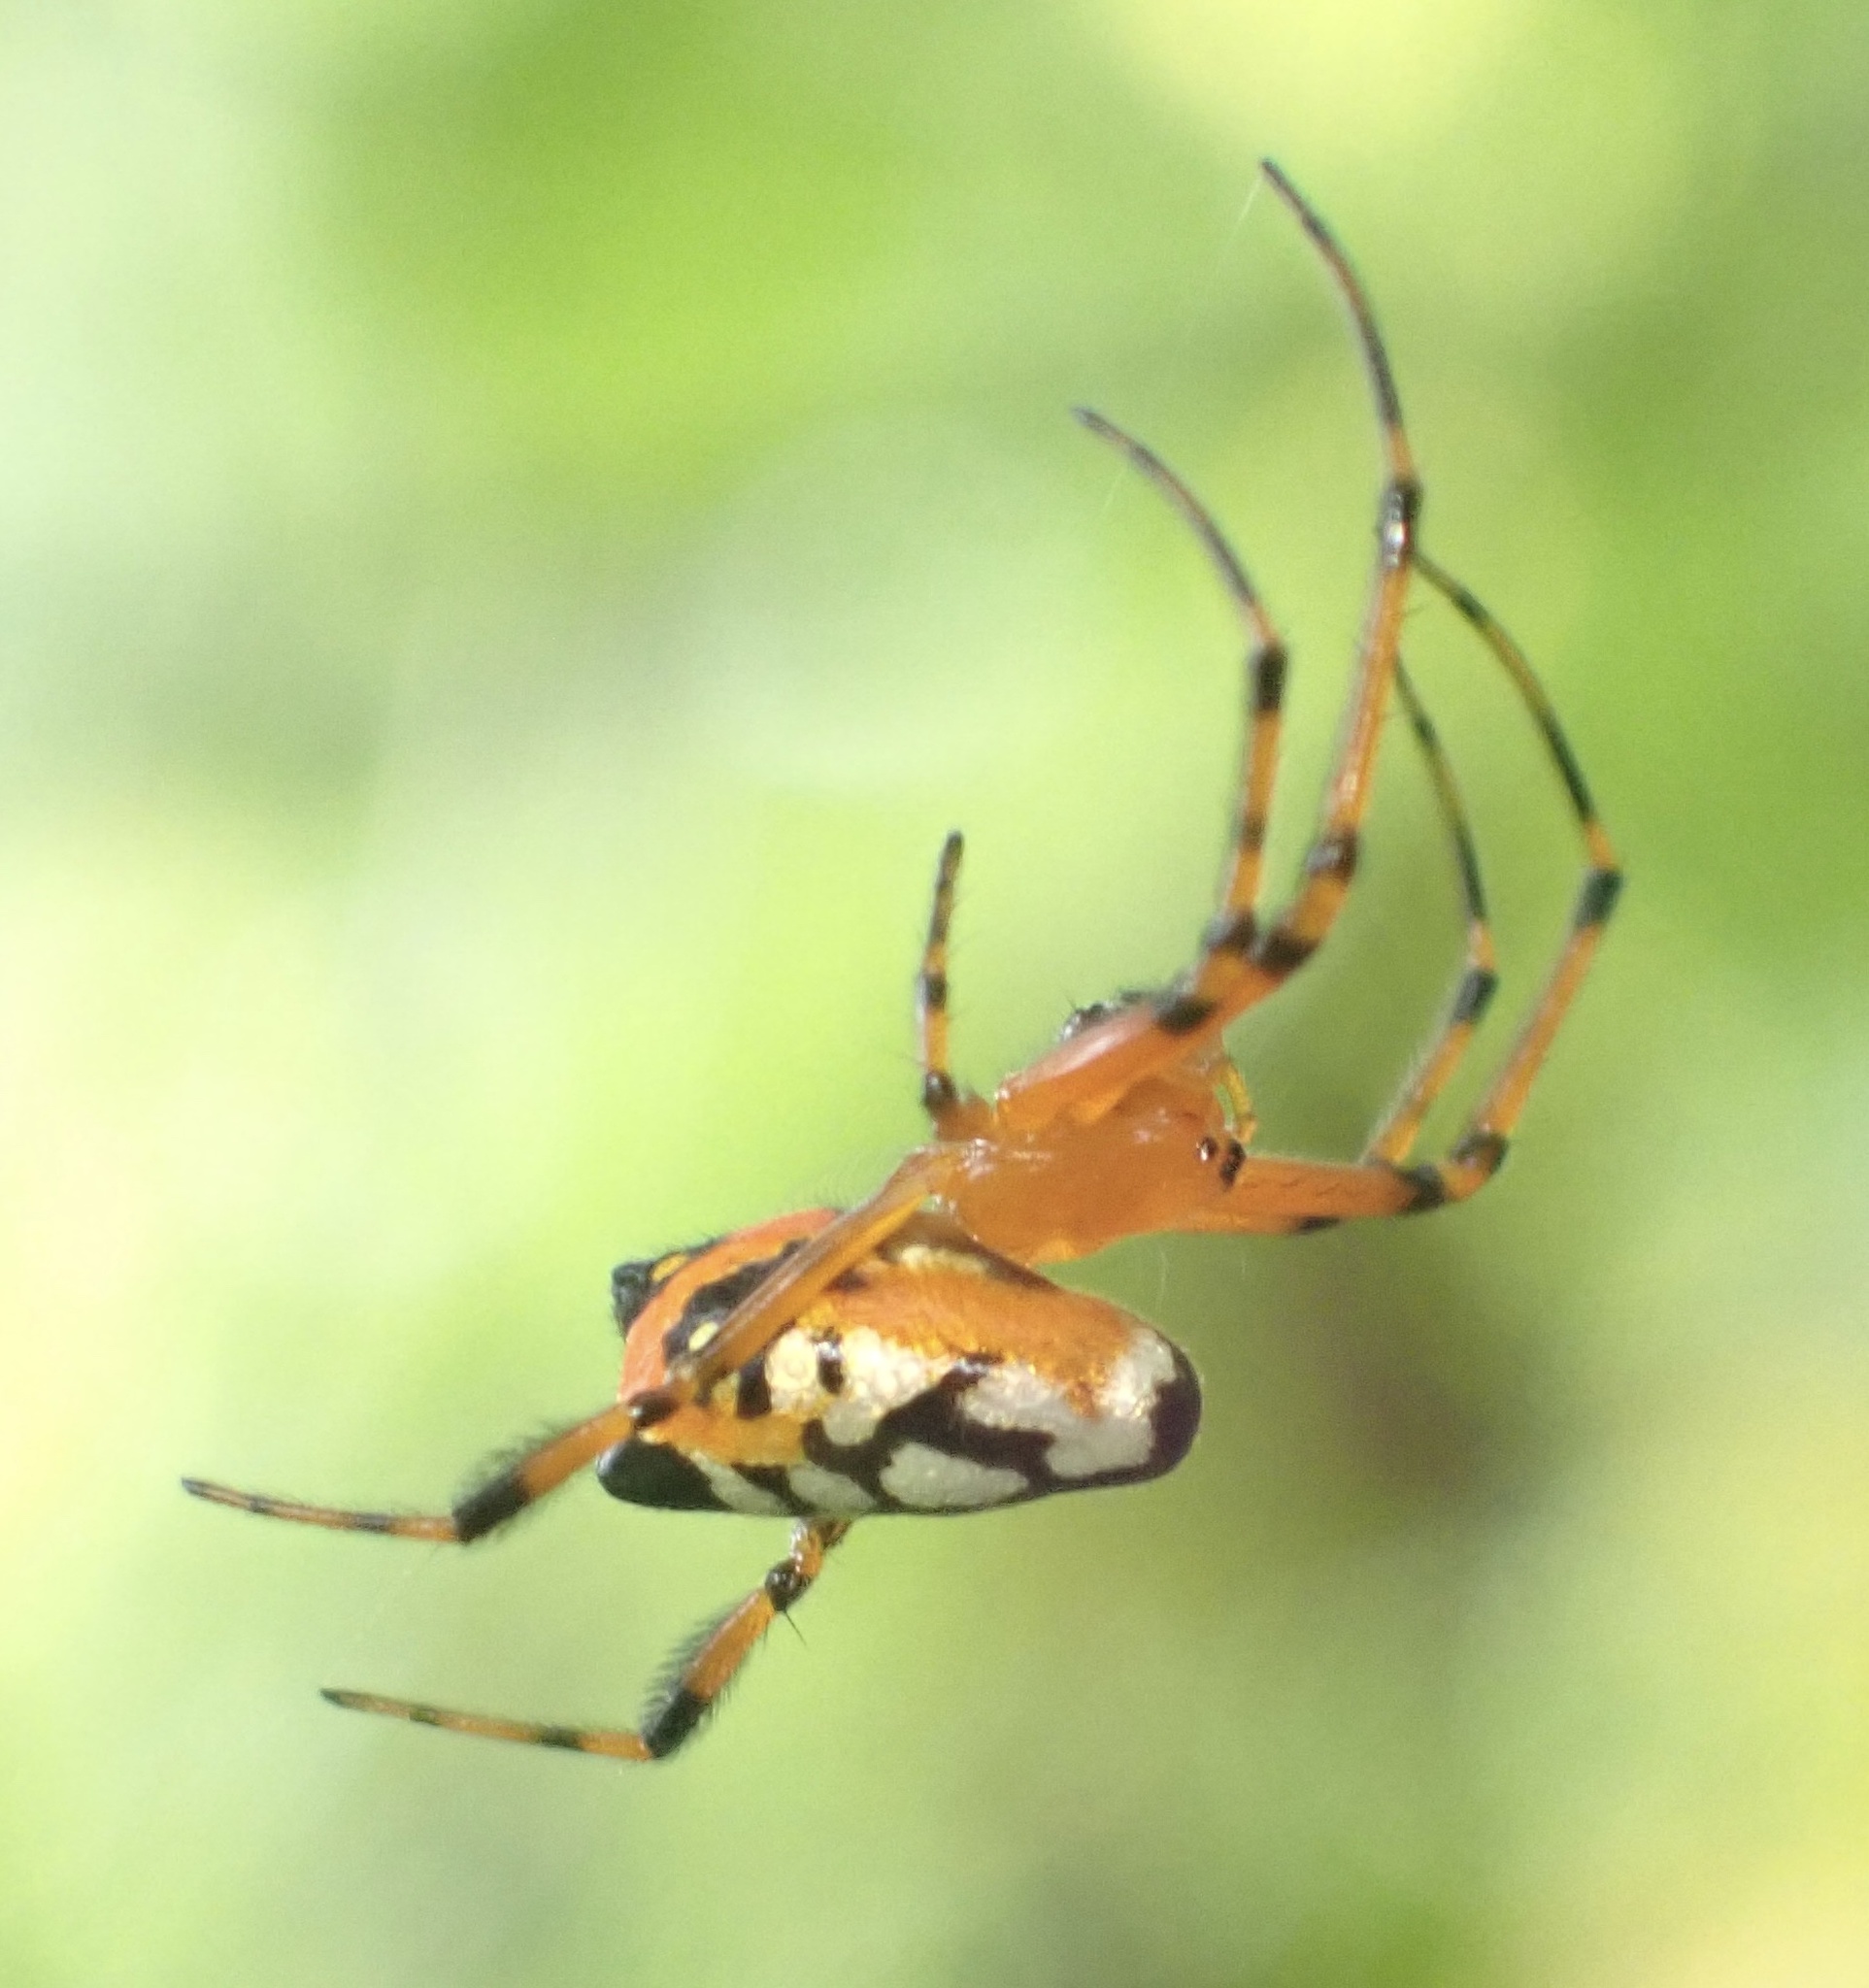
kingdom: Animalia
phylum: Arthropoda
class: Arachnida
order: Araneae
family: Tetragnathidae
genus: Leucauge
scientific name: Leucauge fastigata
